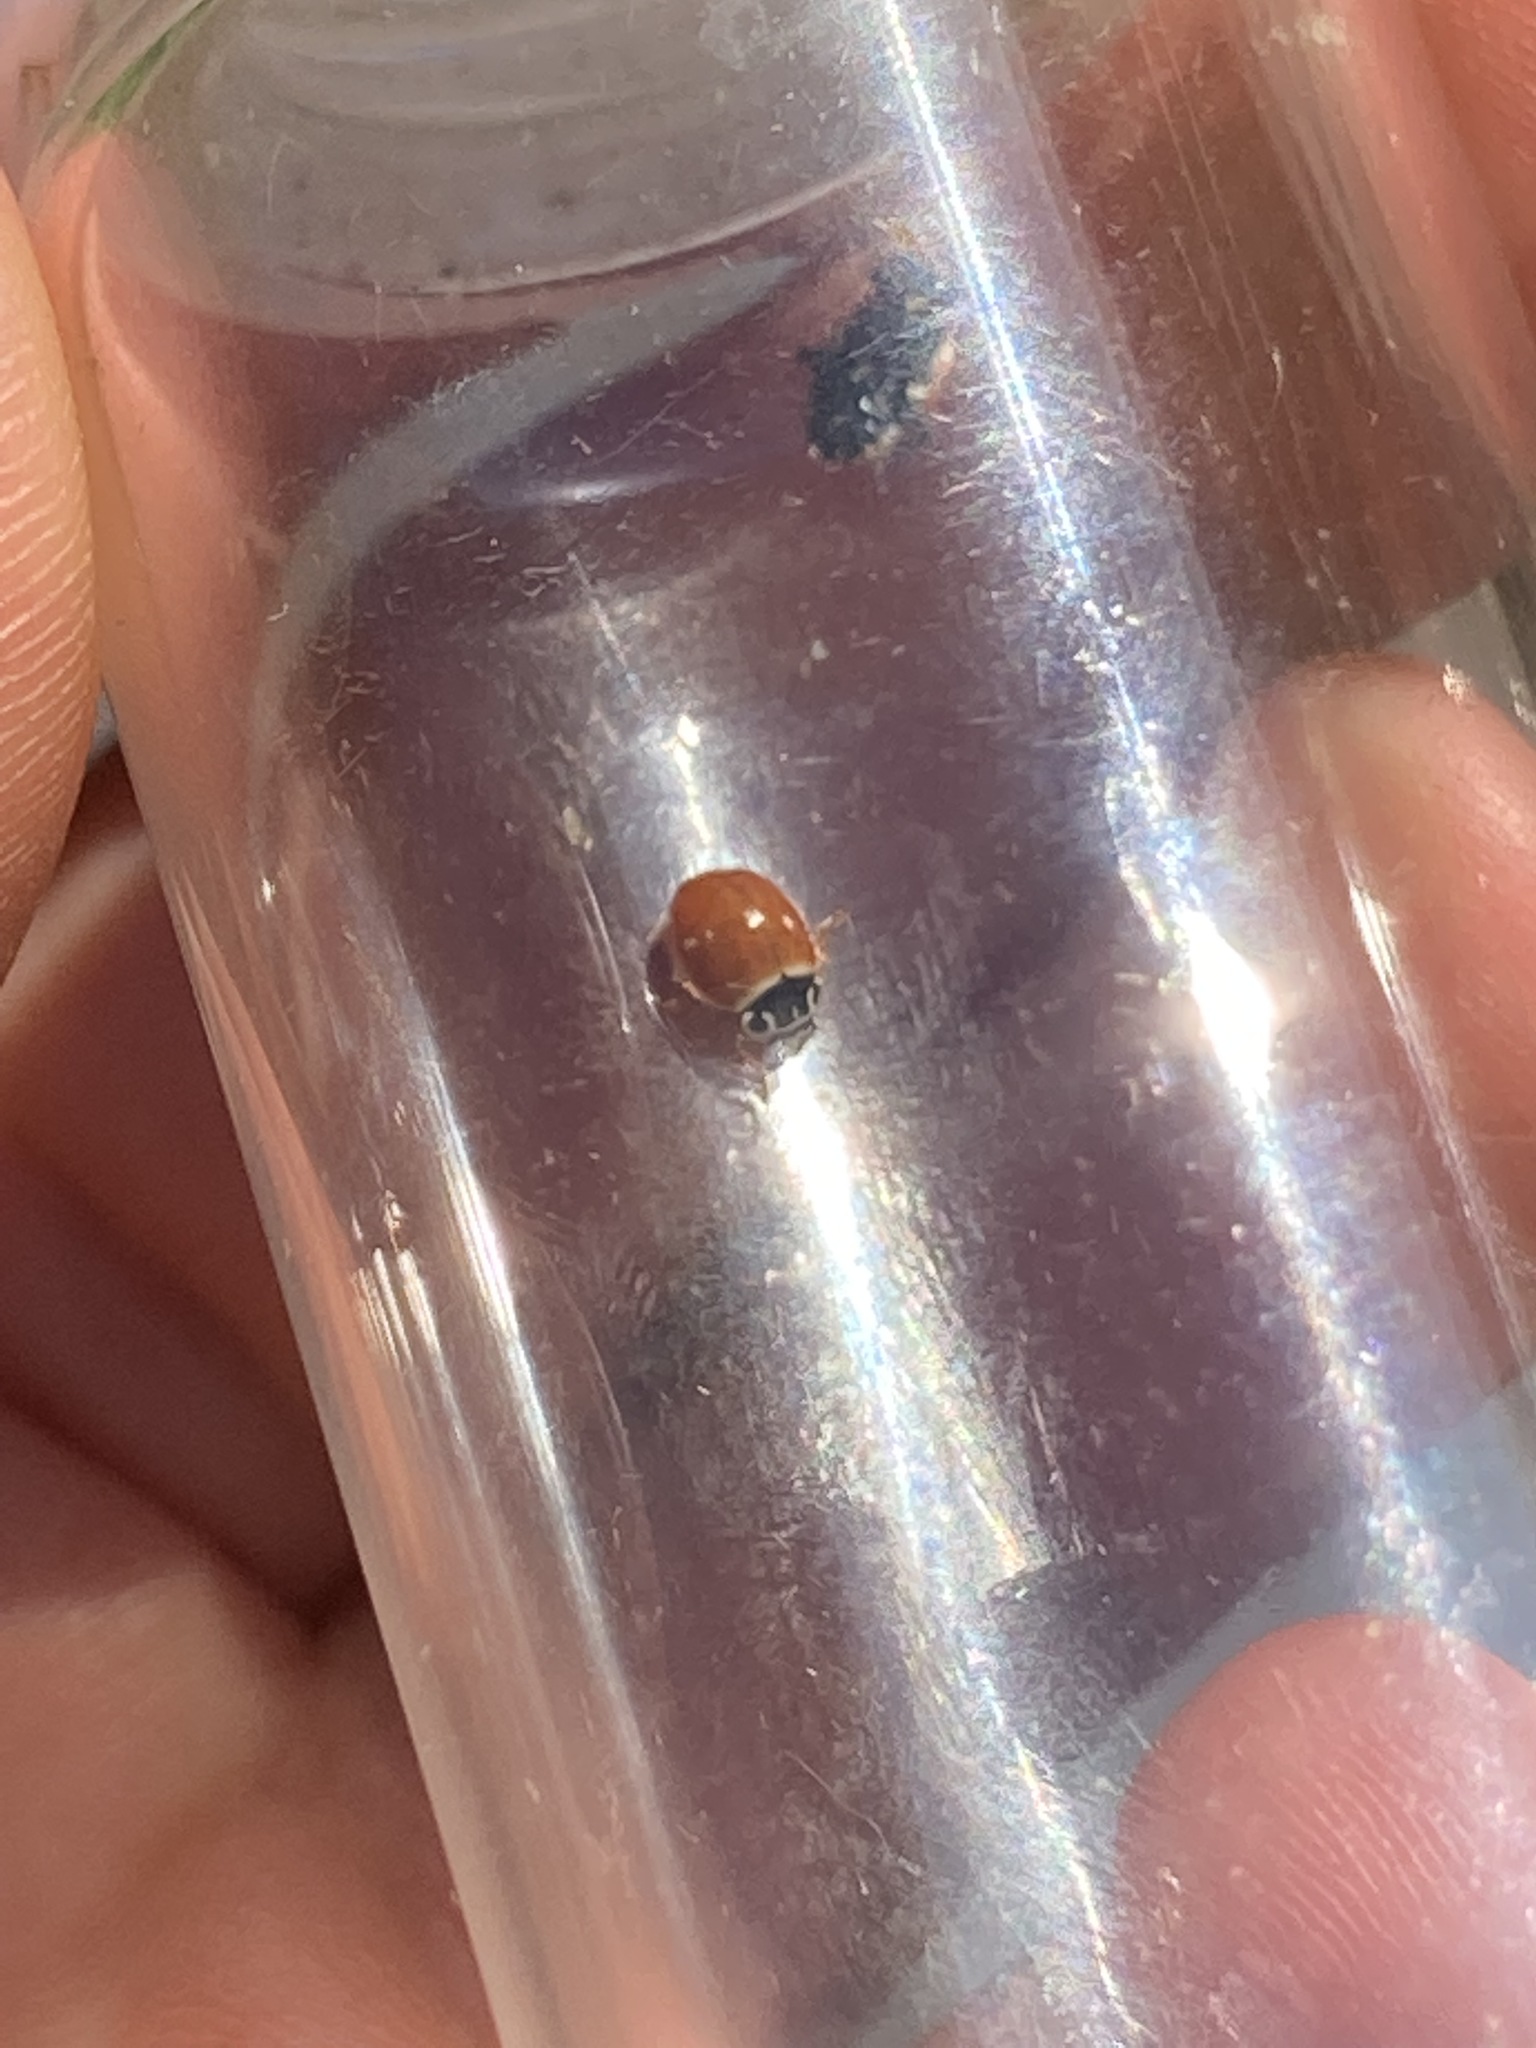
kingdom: Animalia
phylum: Arthropoda
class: Insecta
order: Coleoptera
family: Coccinellidae
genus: Cycloneda
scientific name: Cycloneda munda
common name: Polished lady beetle
